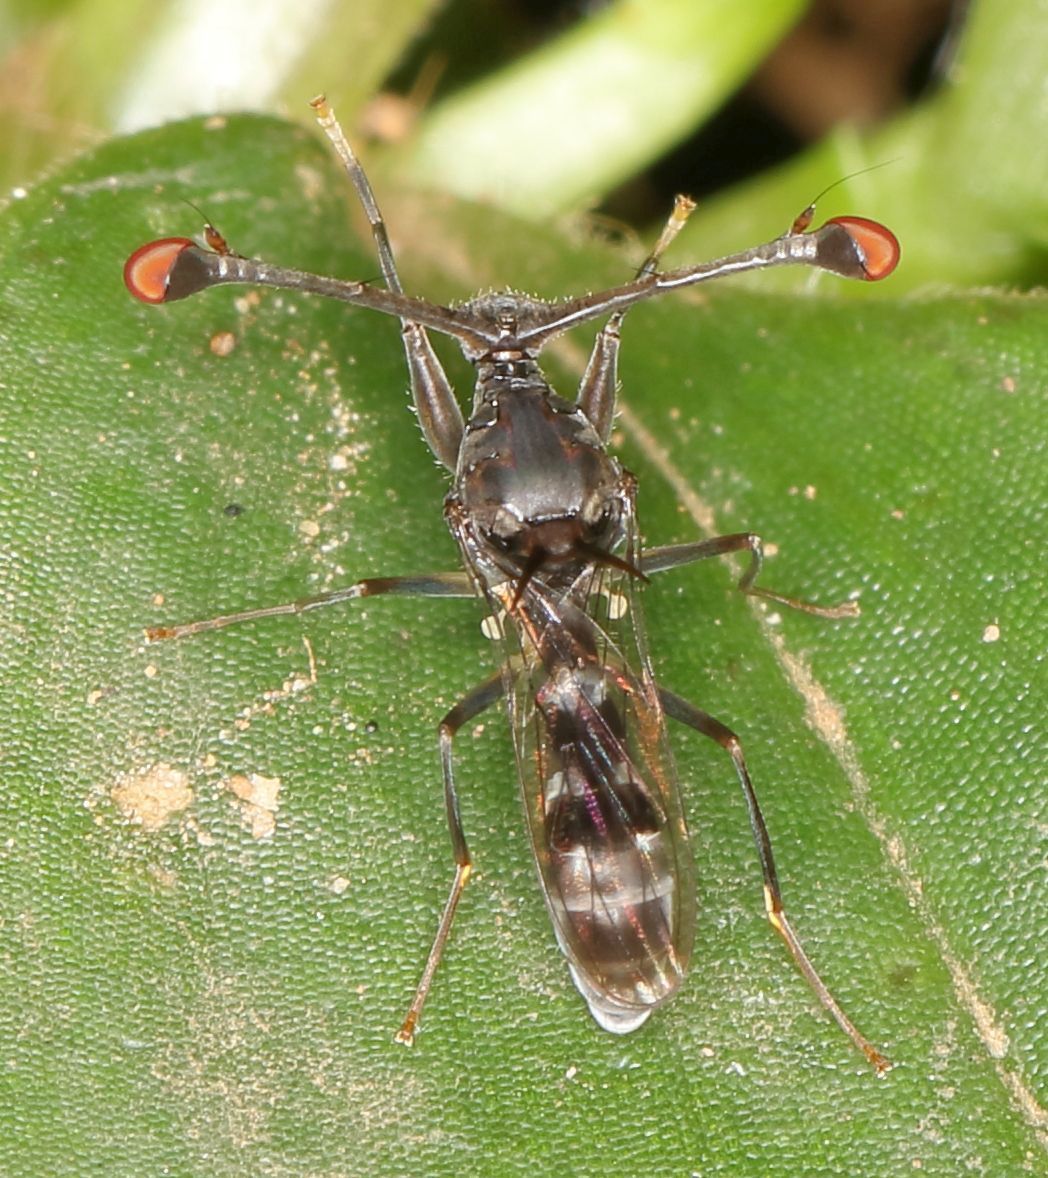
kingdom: Animalia
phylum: Arthropoda
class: Insecta
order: Diptera
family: Diopsidae
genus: Diasemopsis
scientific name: Diasemopsis obstans
